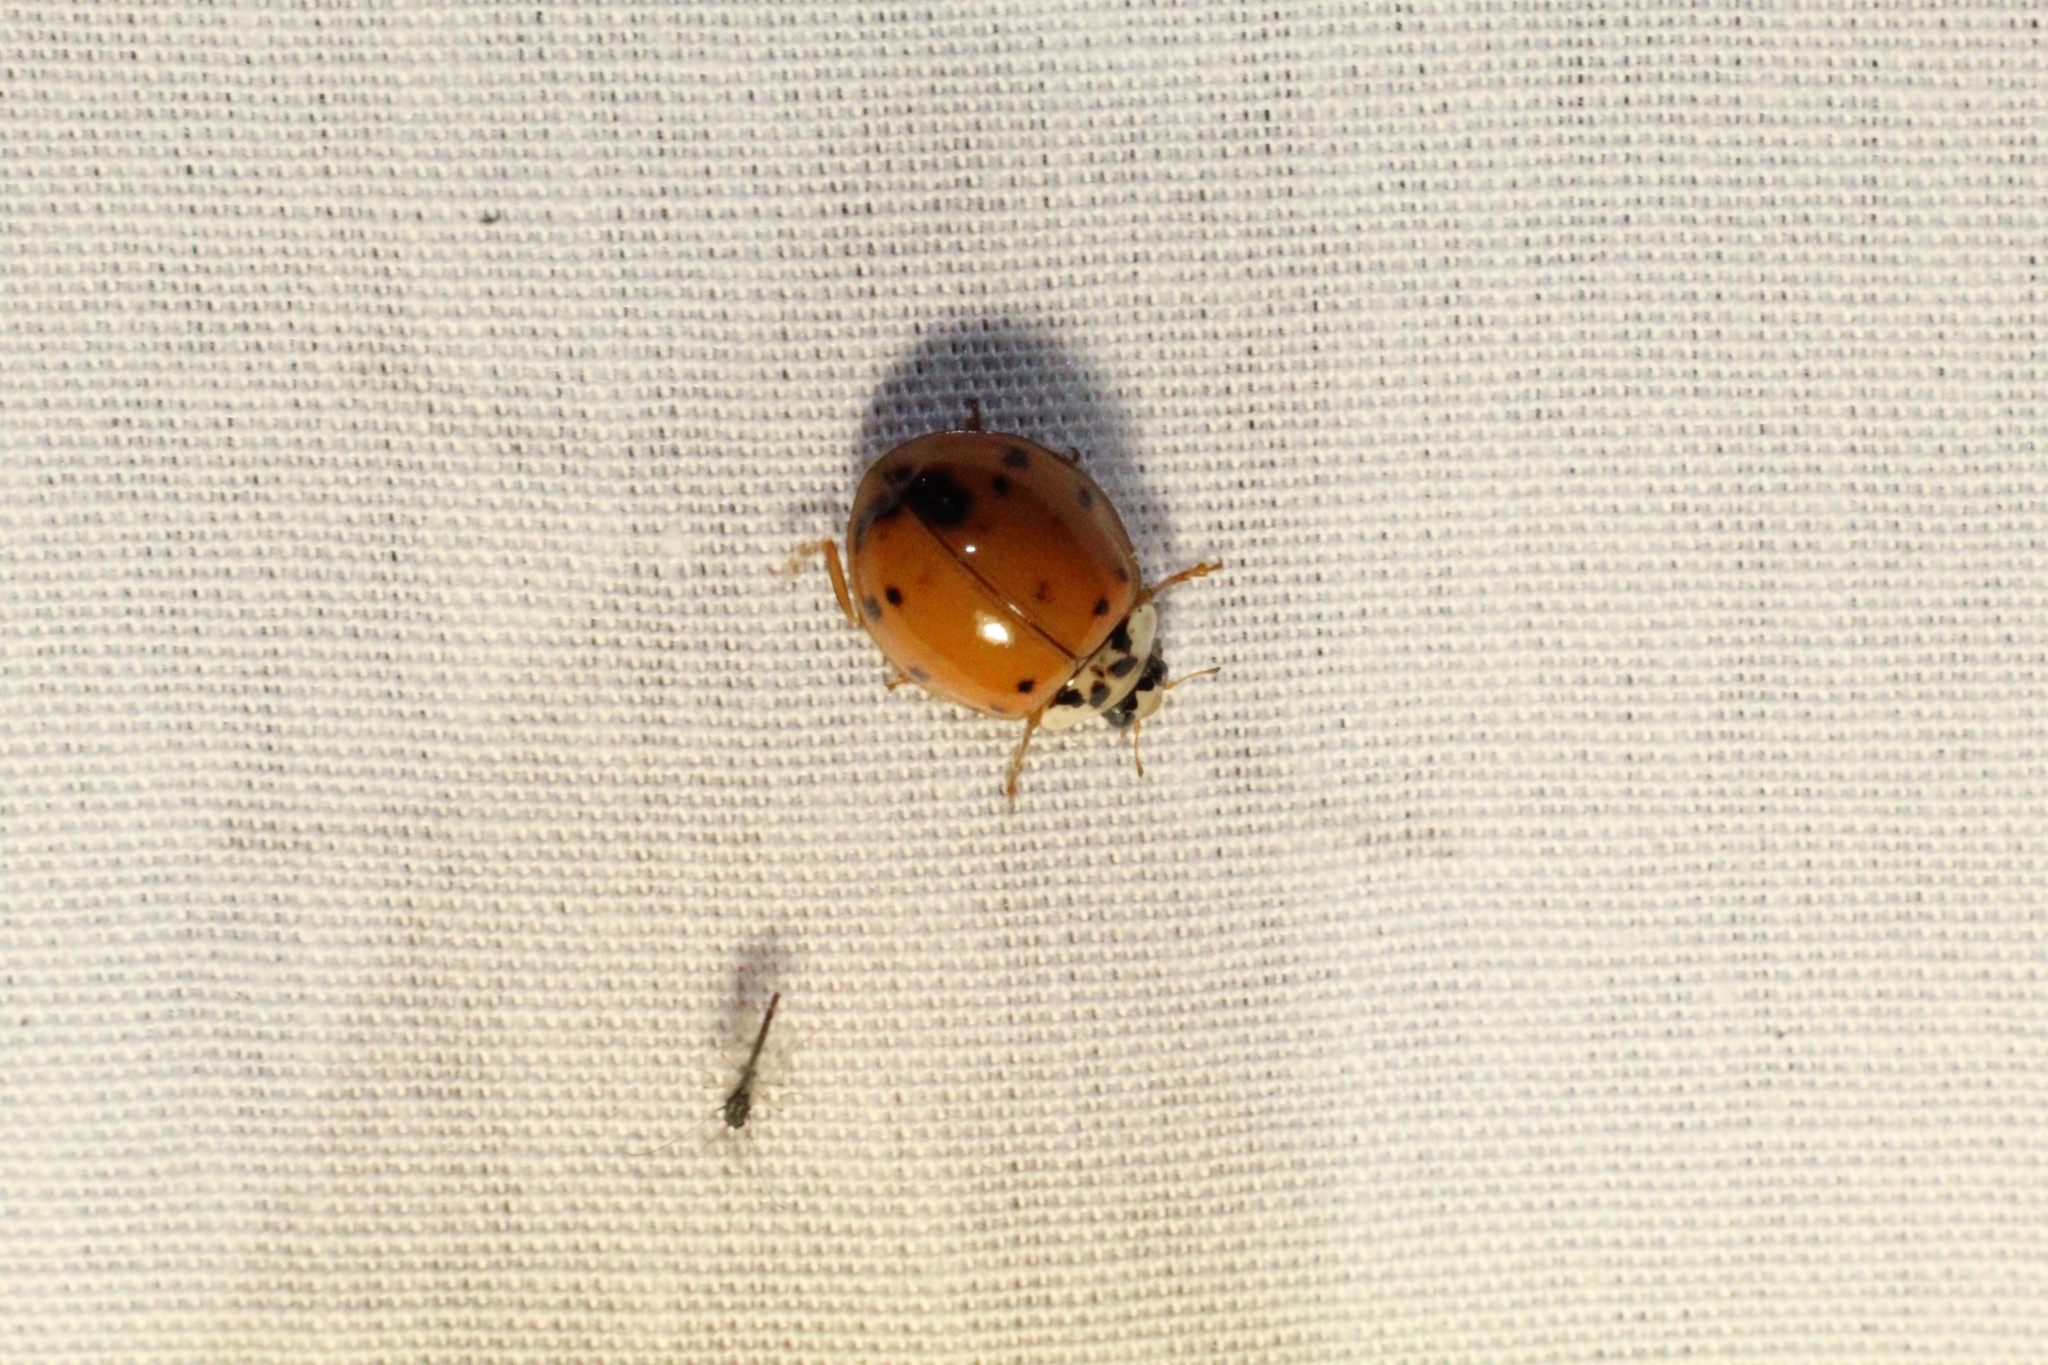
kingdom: Animalia
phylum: Arthropoda
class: Insecta
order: Coleoptera
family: Coccinellidae
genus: Harmonia
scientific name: Harmonia axyridis
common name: Harlequin ladybird
